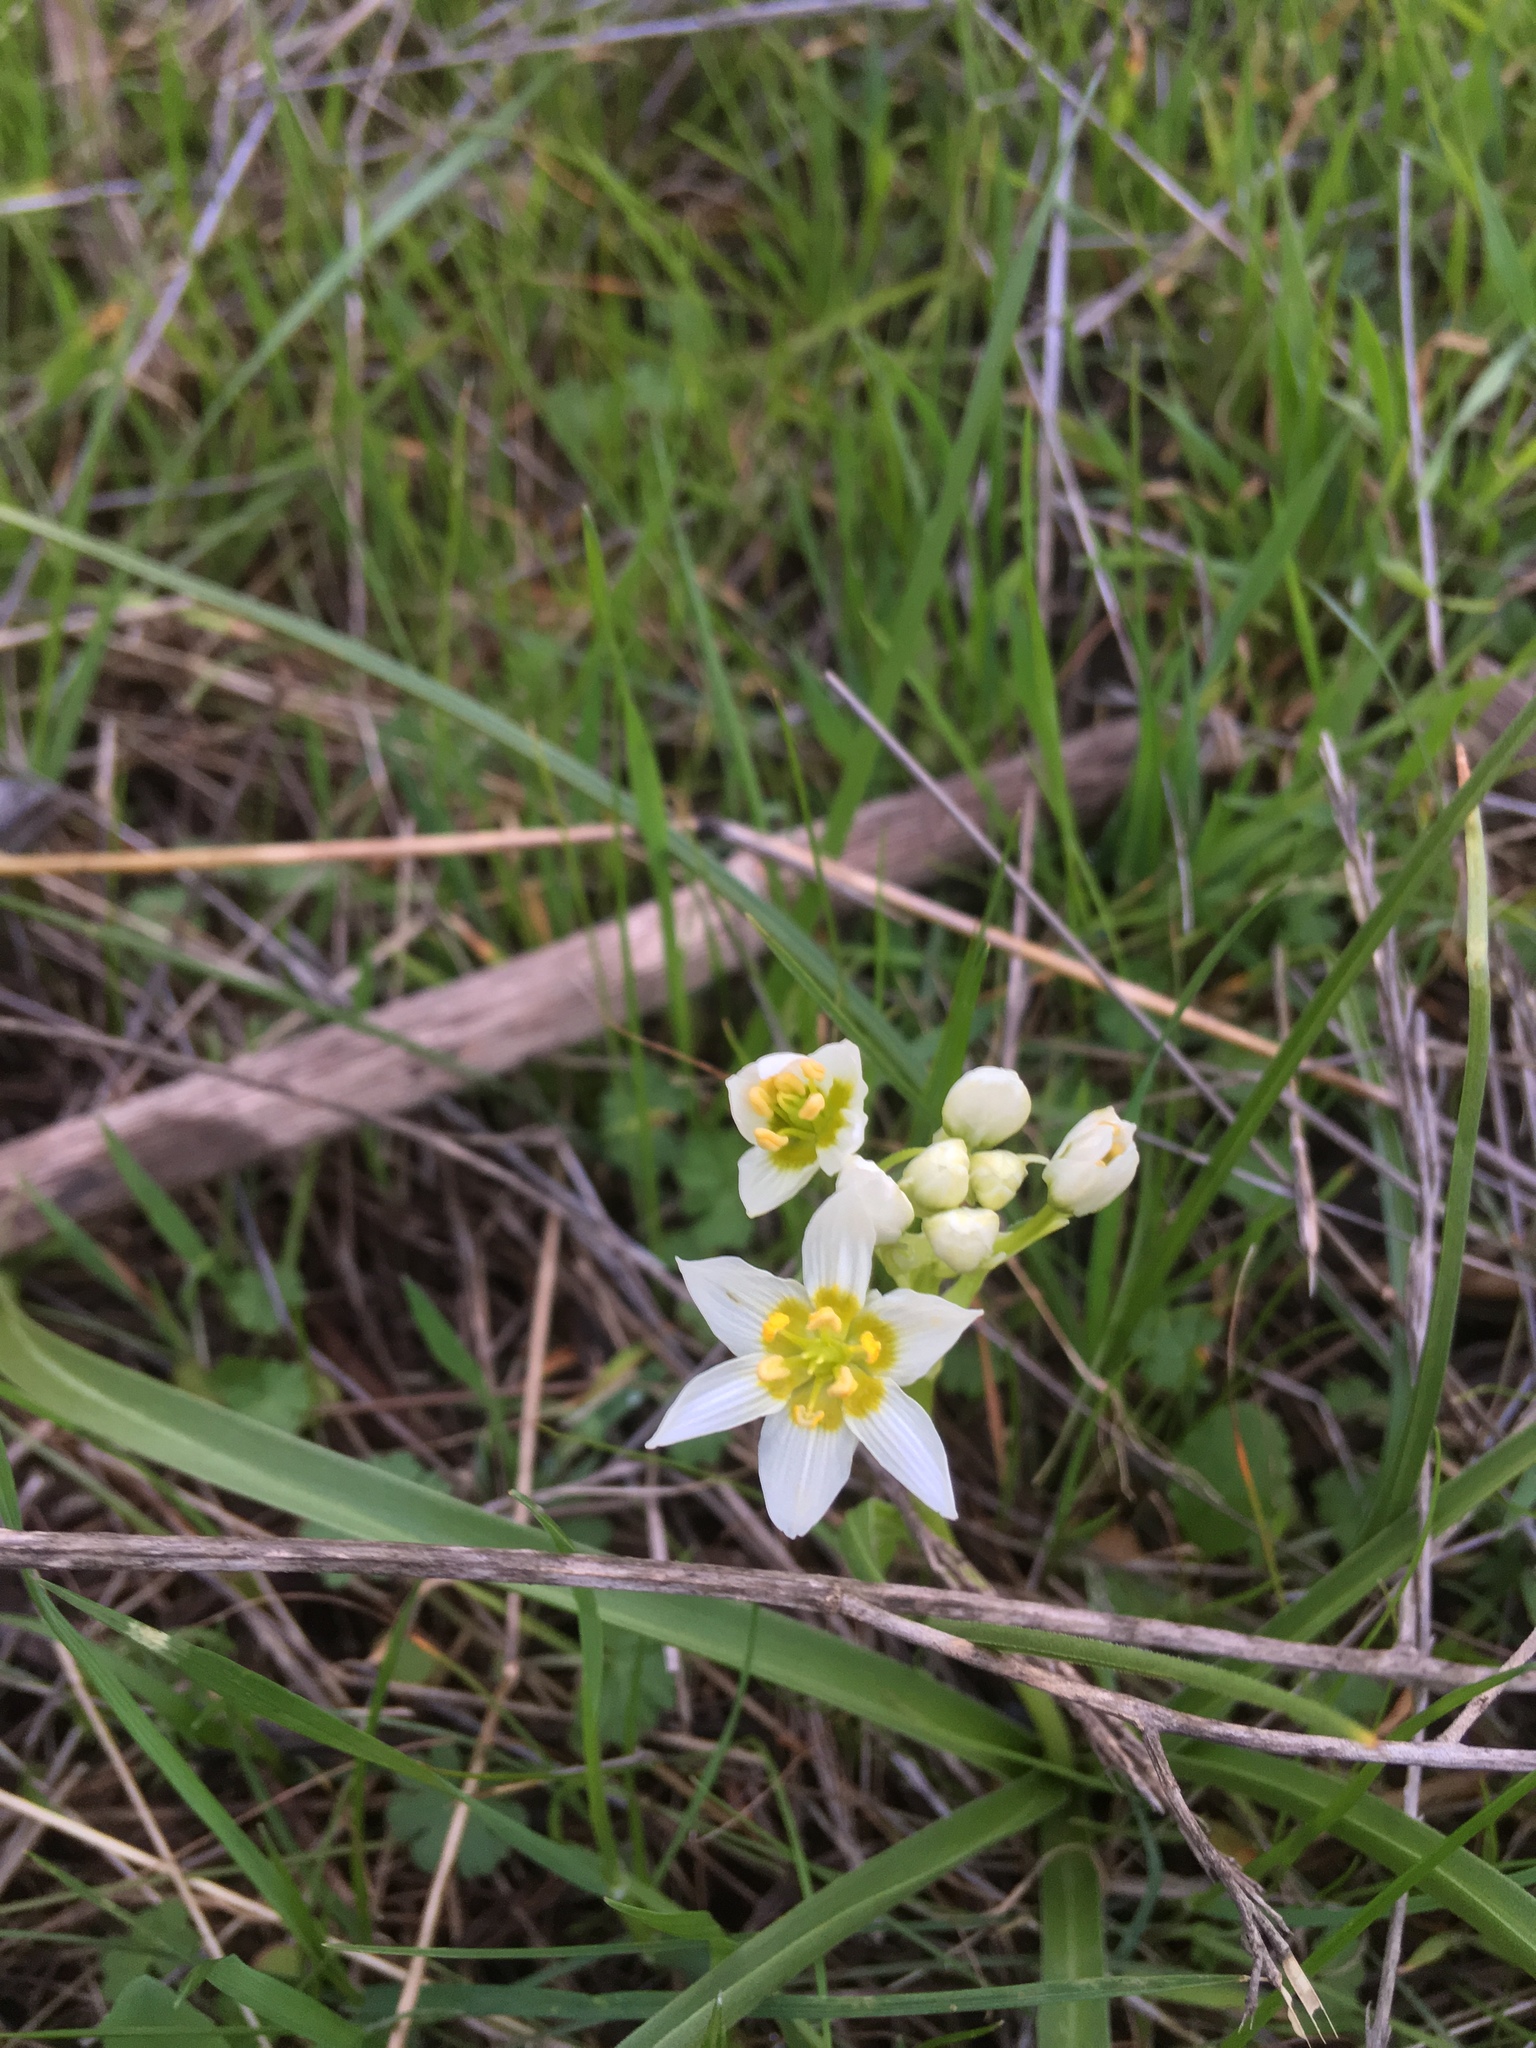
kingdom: Plantae
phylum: Tracheophyta
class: Liliopsida
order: Liliales
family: Melanthiaceae
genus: Toxicoscordion
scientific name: Toxicoscordion fremontii
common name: Fremont's death camas
